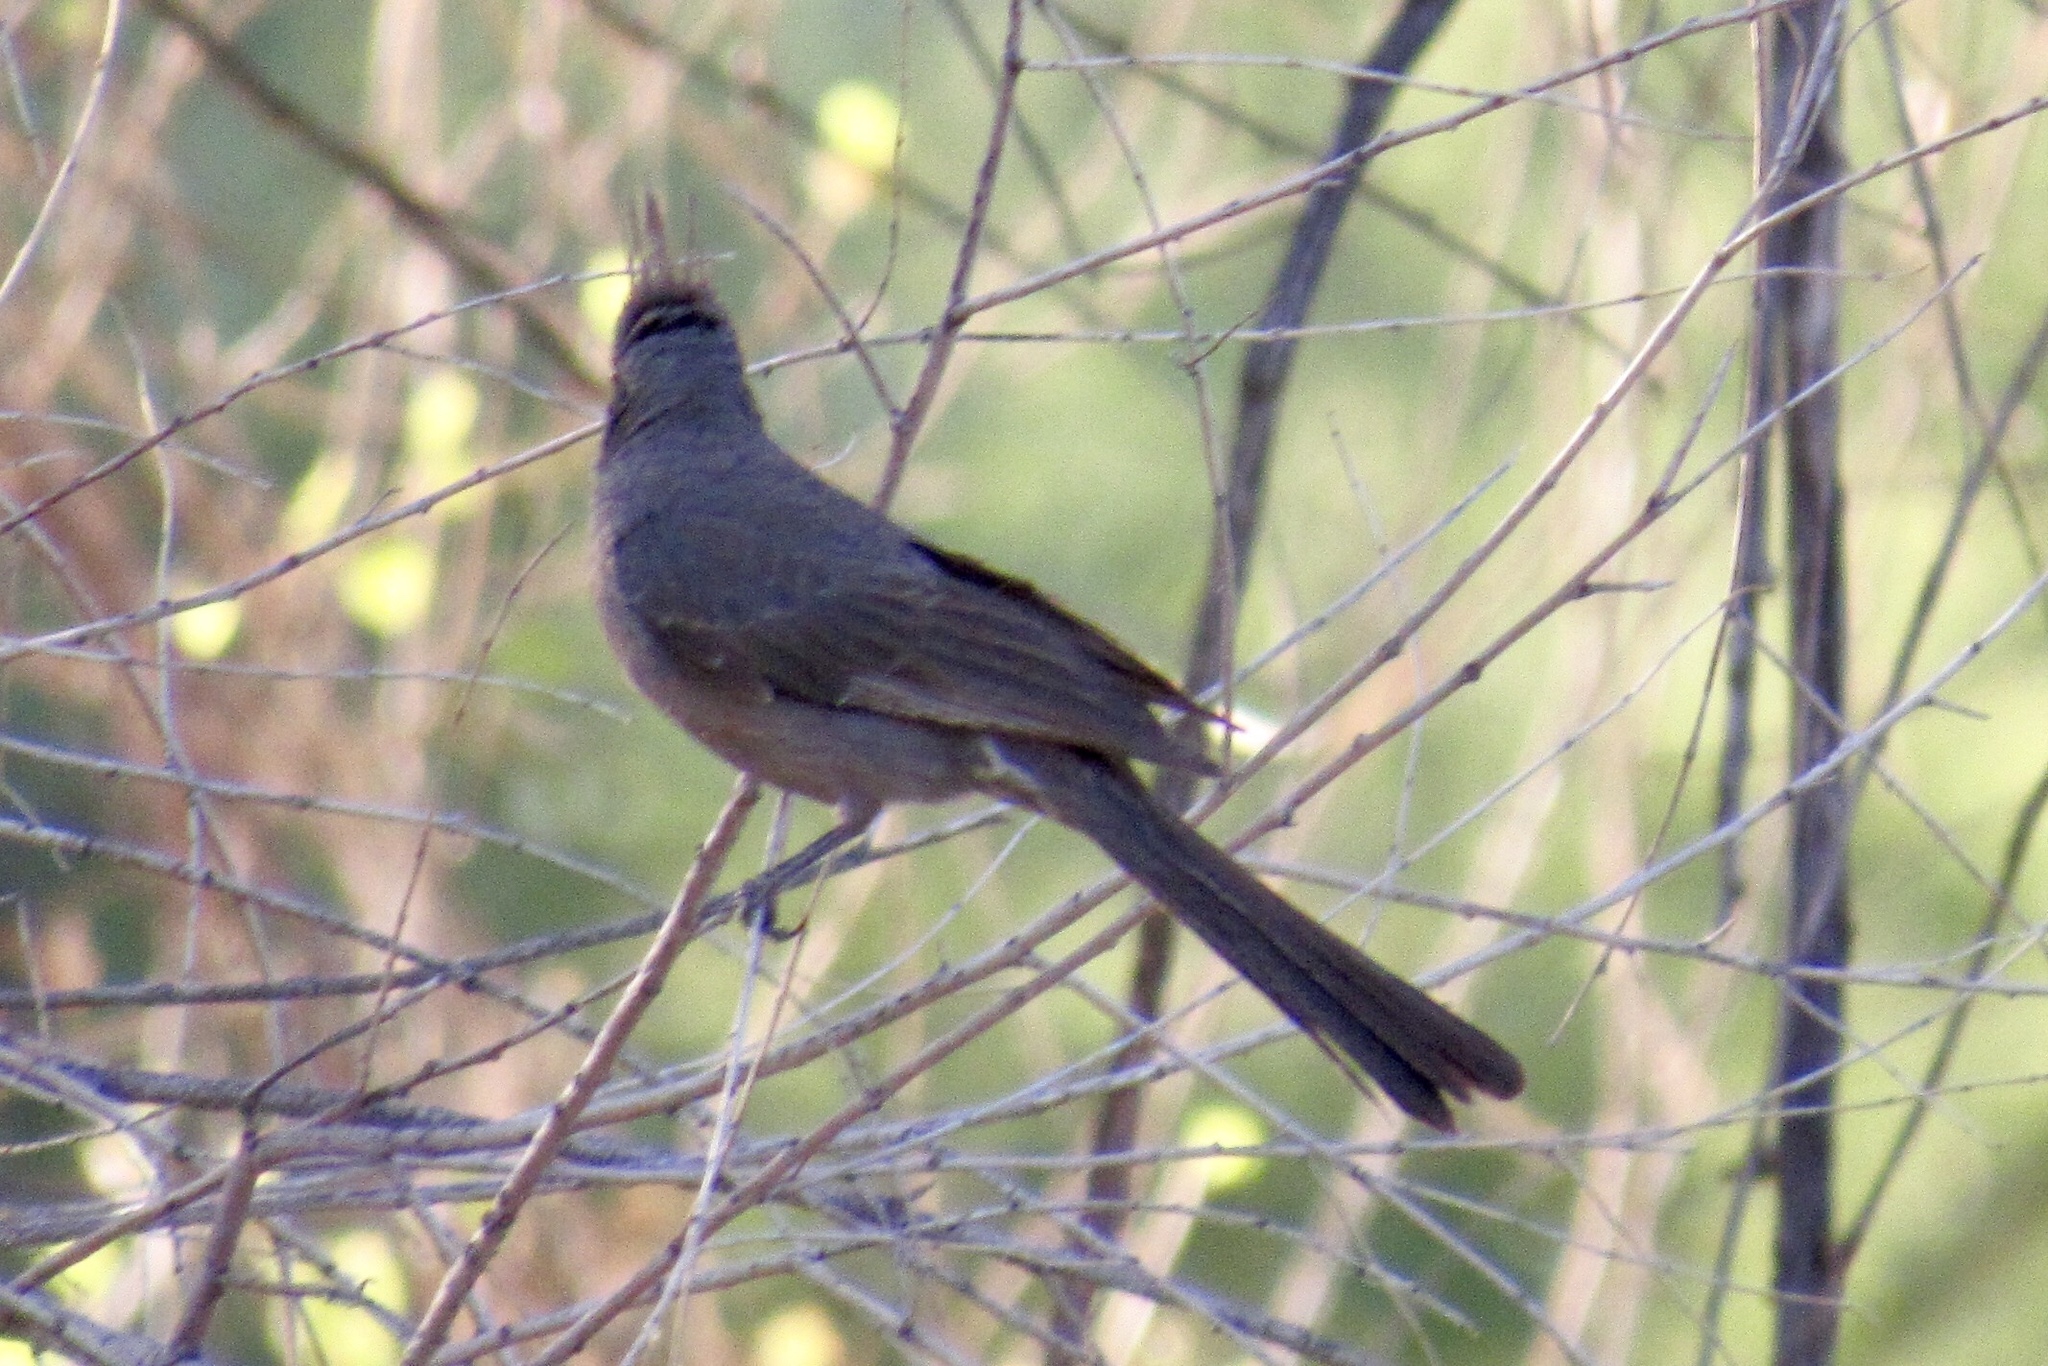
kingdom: Animalia
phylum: Chordata
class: Aves
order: Passeriformes
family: Ptilogonatidae
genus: Phainopepla
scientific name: Phainopepla nitens
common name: Phainopepla
